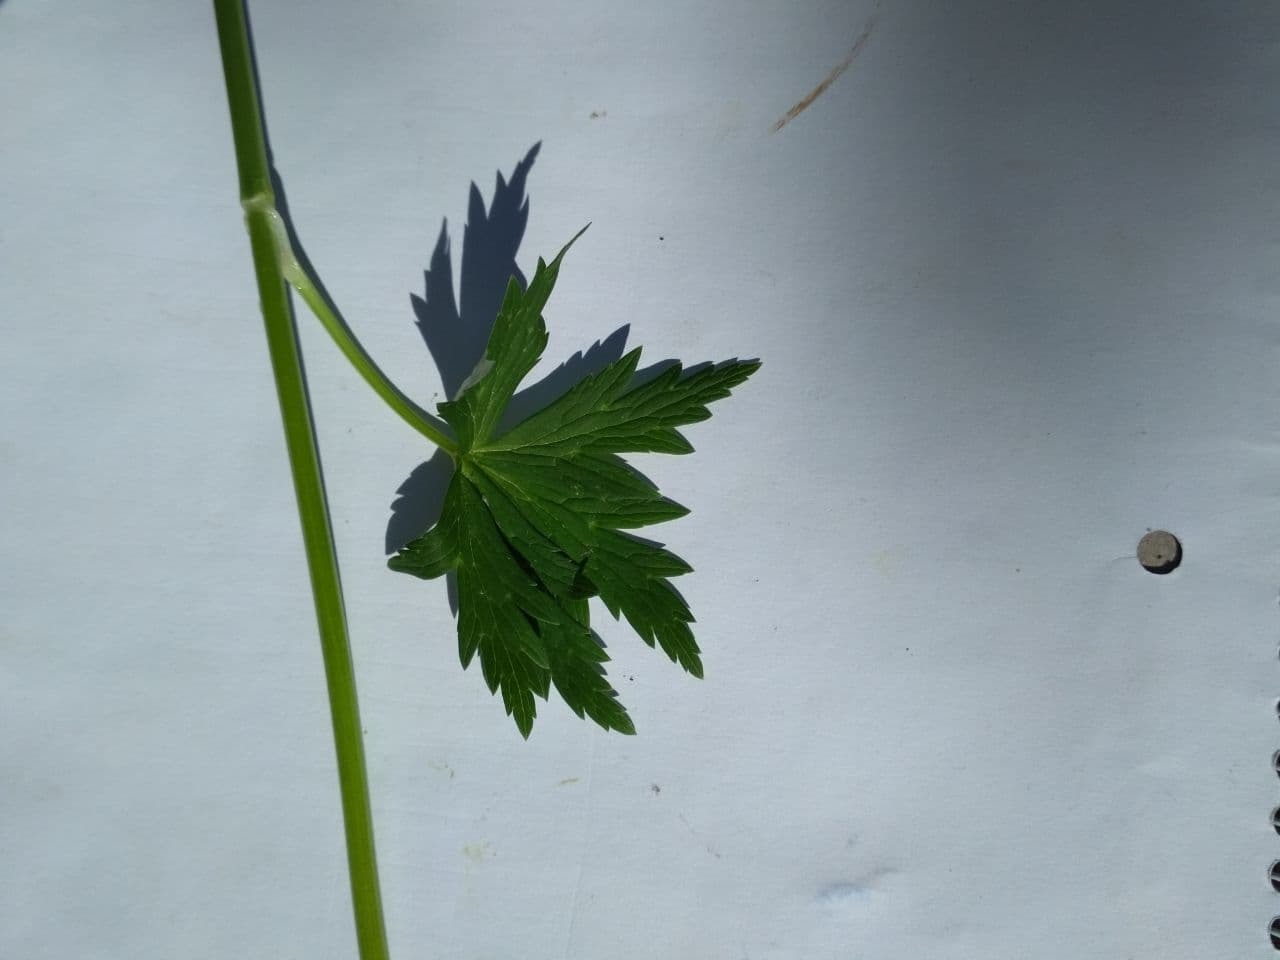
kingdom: Plantae
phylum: Tracheophyta
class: Magnoliopsida
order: Ranunculales
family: Ranunculaceae
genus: Trollius
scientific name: Trollius europaeus
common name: European globeflower
